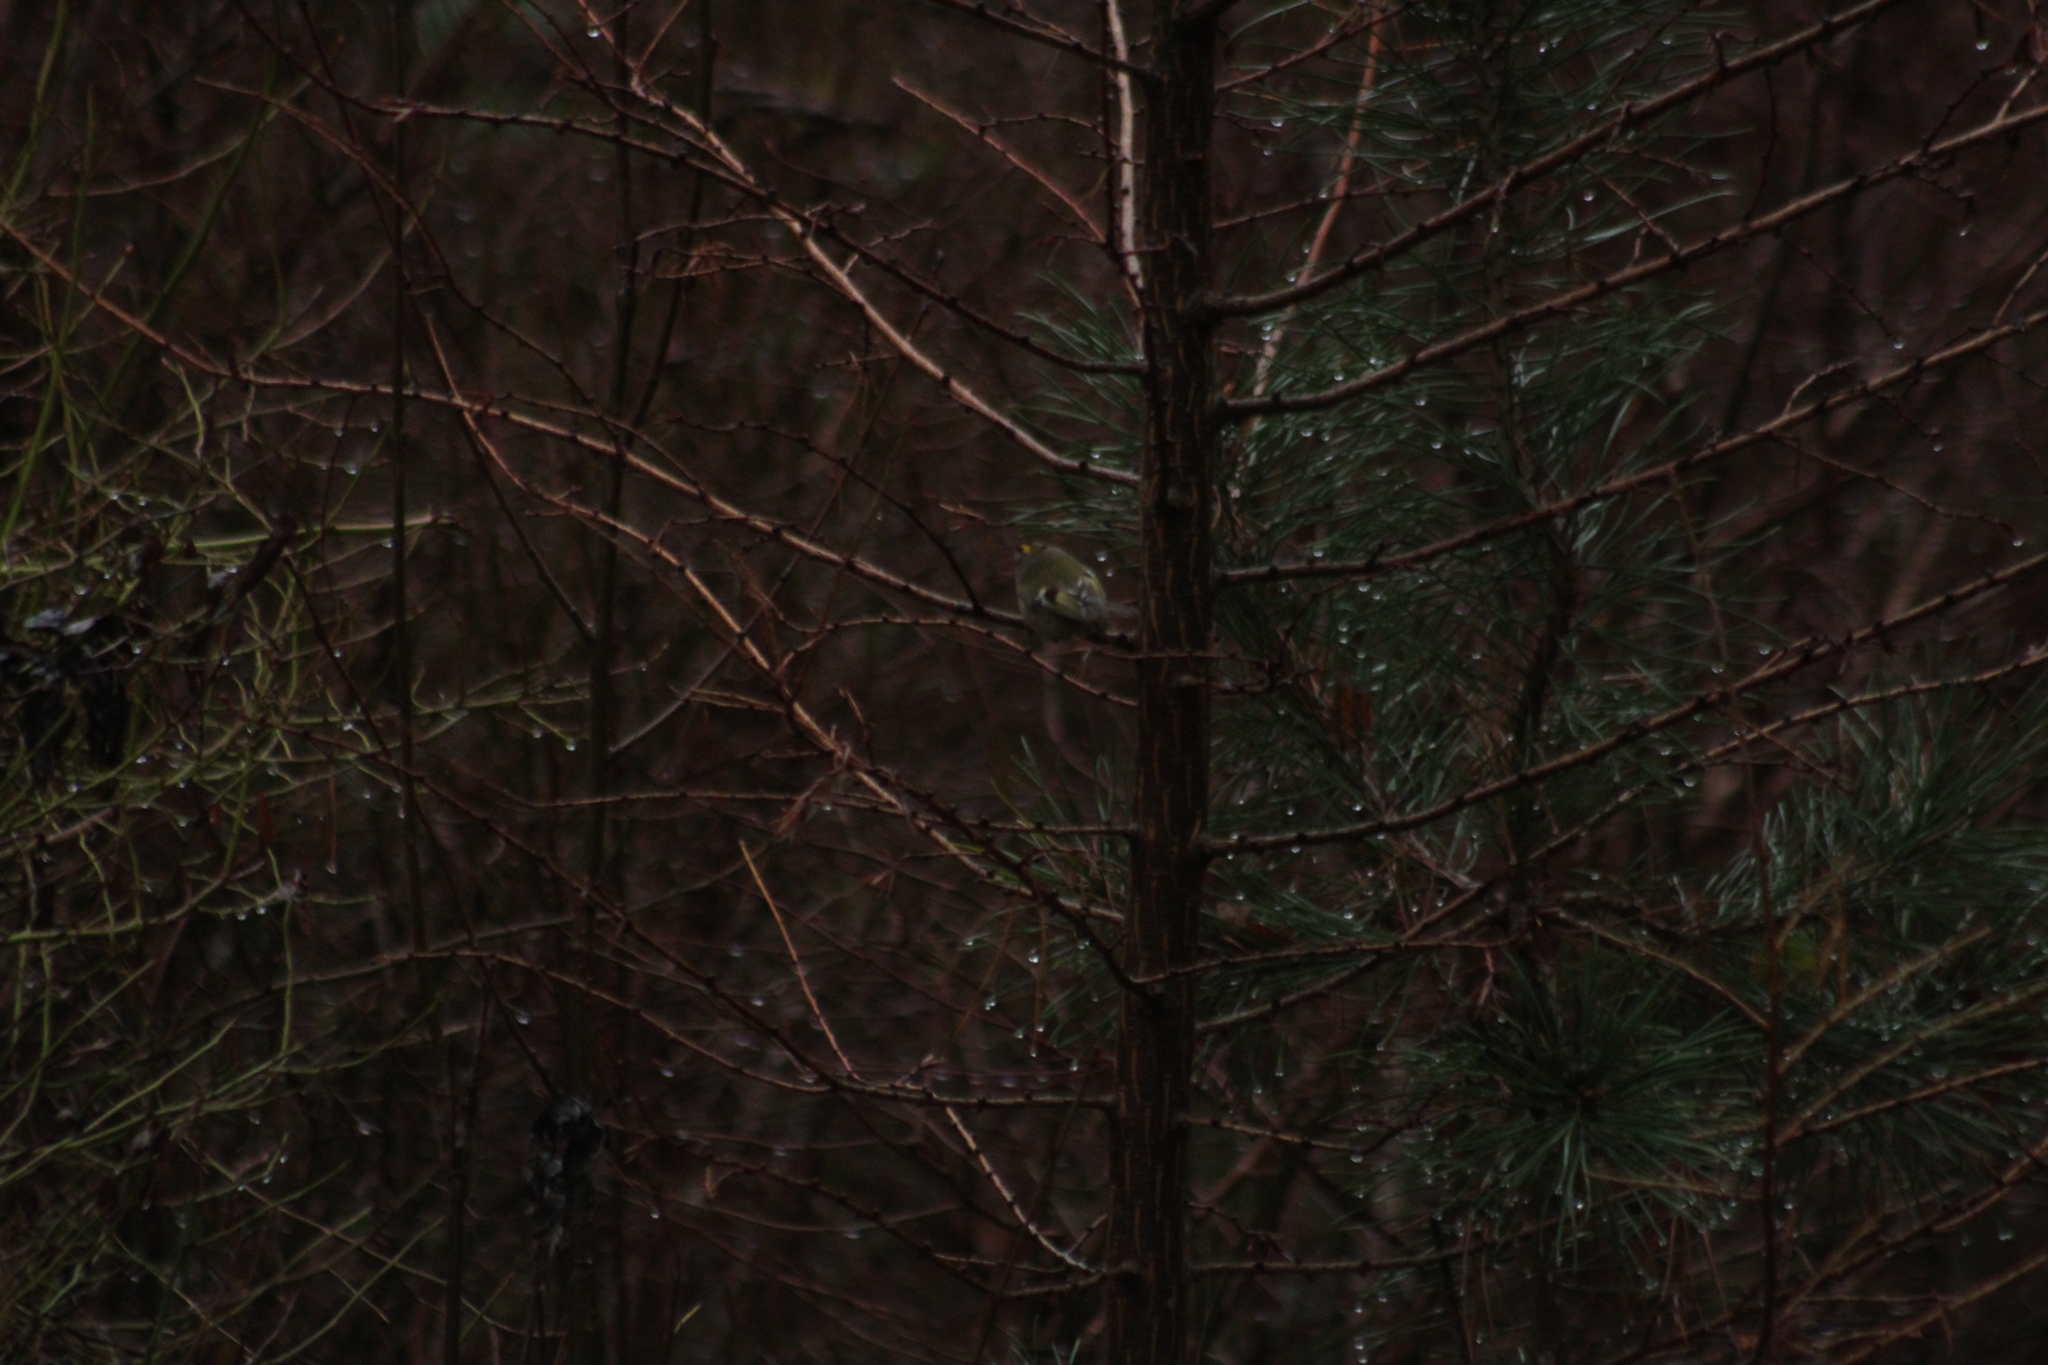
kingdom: Animalia
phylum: Chordata
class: Aves
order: Passeriformes
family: Regulidae
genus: Regulus
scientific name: Regulus regulus
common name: Goldcrest
